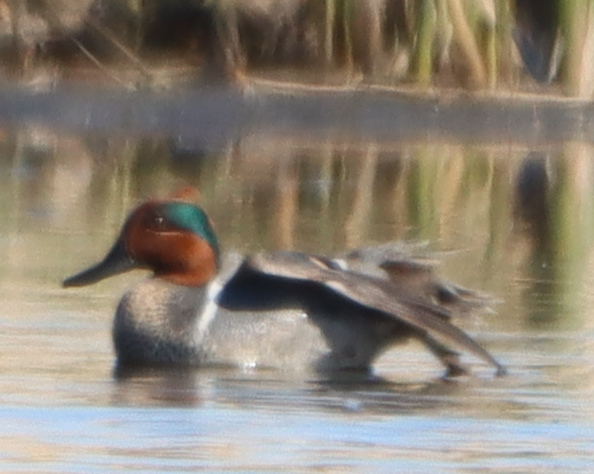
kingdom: Animalia
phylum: Chordata
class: Aves
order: Anseriformes
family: Anatidae
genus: Anas
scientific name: Anas crecca
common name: Eurasian teal
